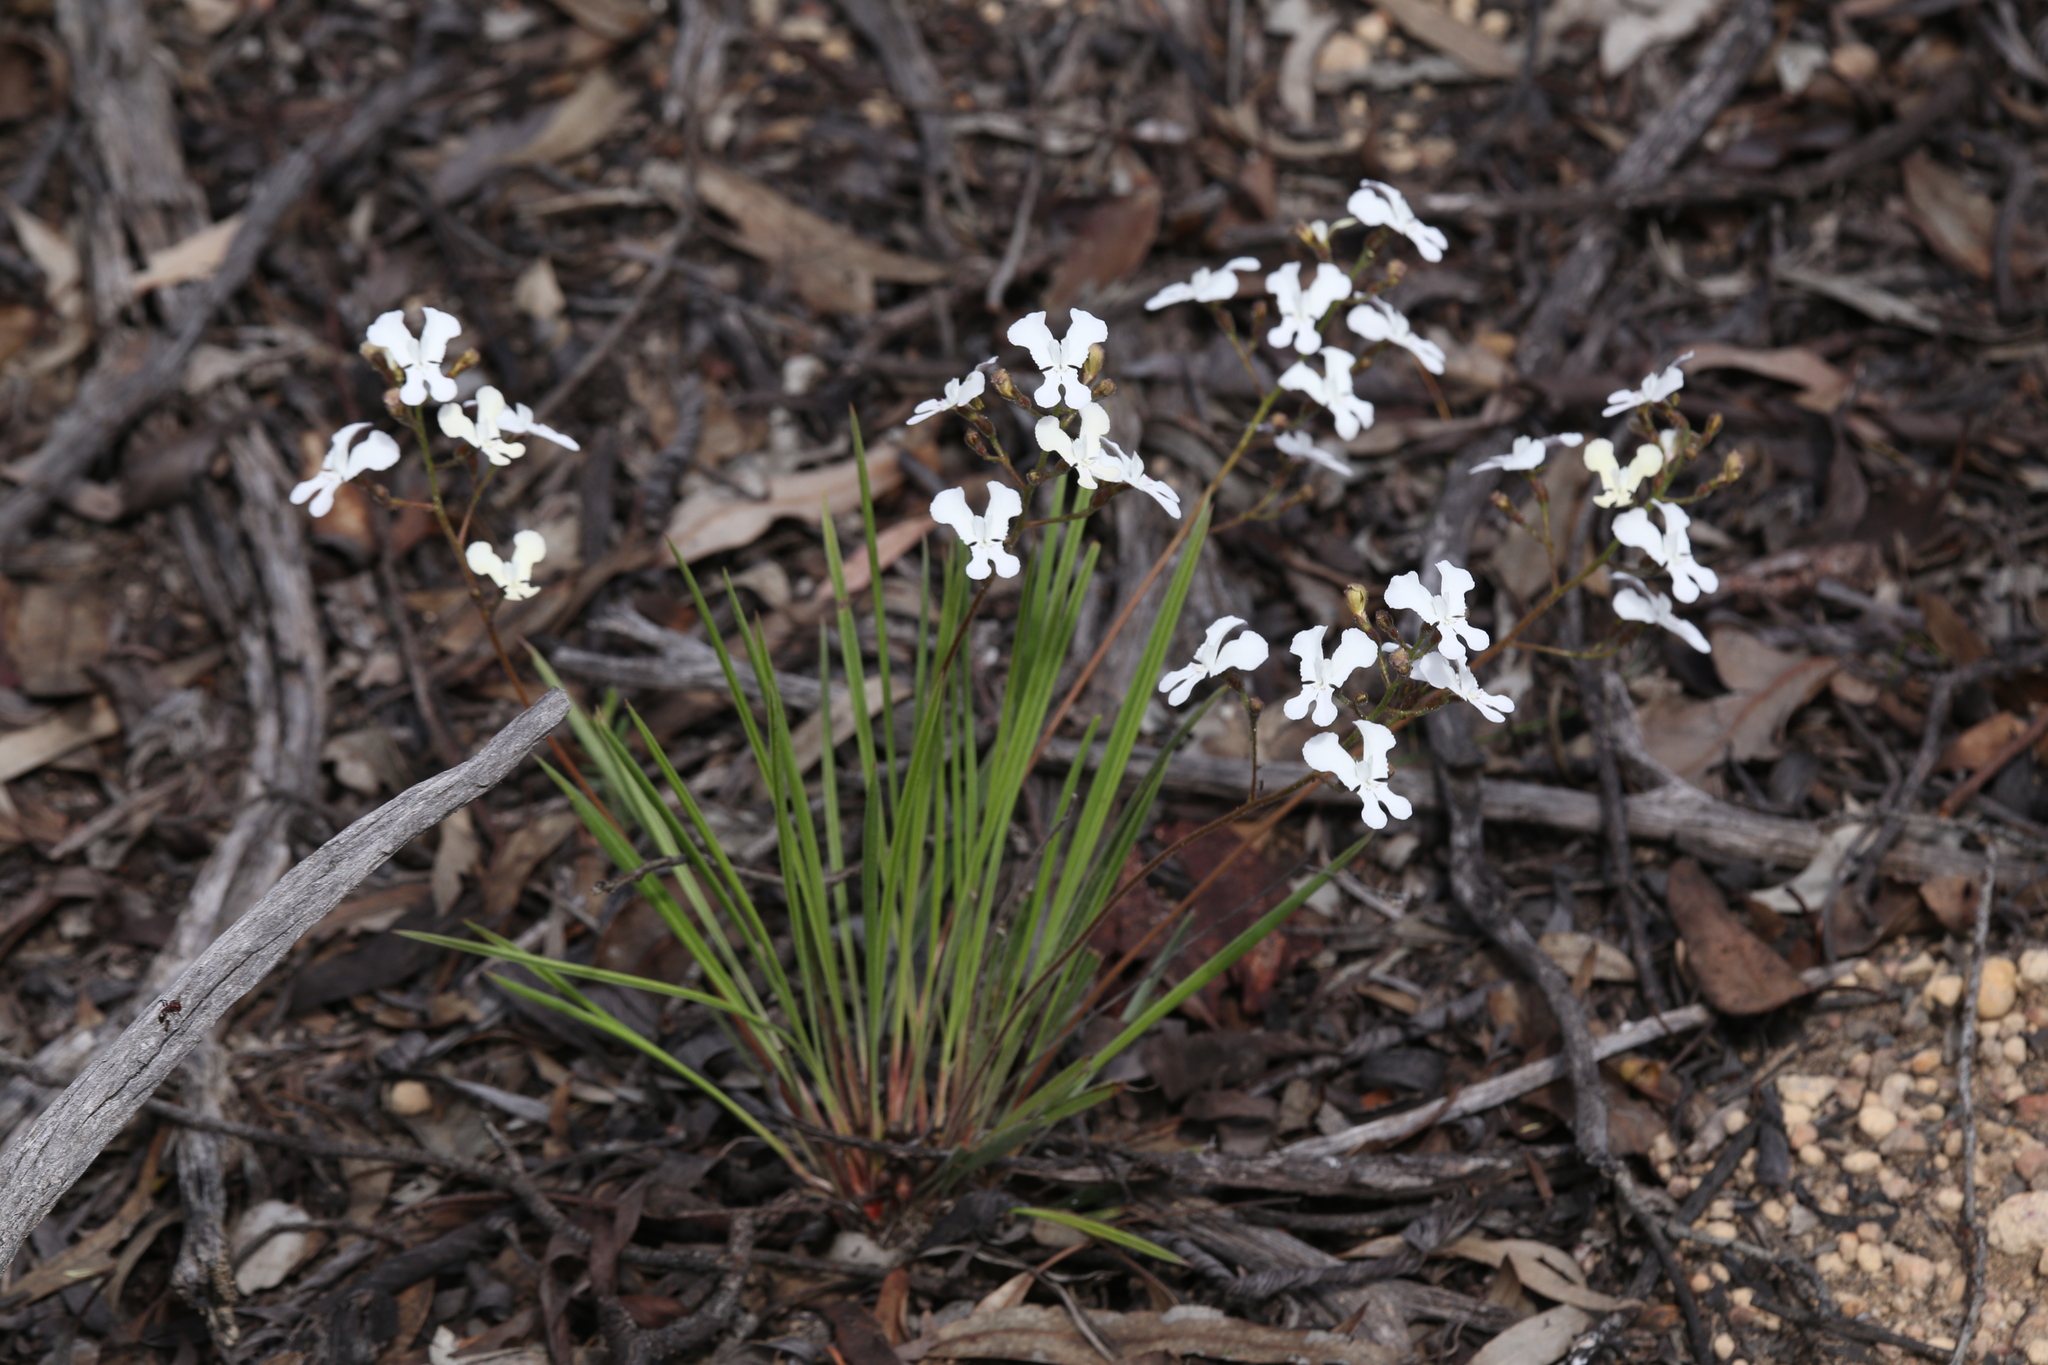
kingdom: Plantae
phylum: Tracheophyta
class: Magnoliopsida
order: Asterales
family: Stylidiaceae
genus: Stylidium
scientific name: Stylidium caricifolium
